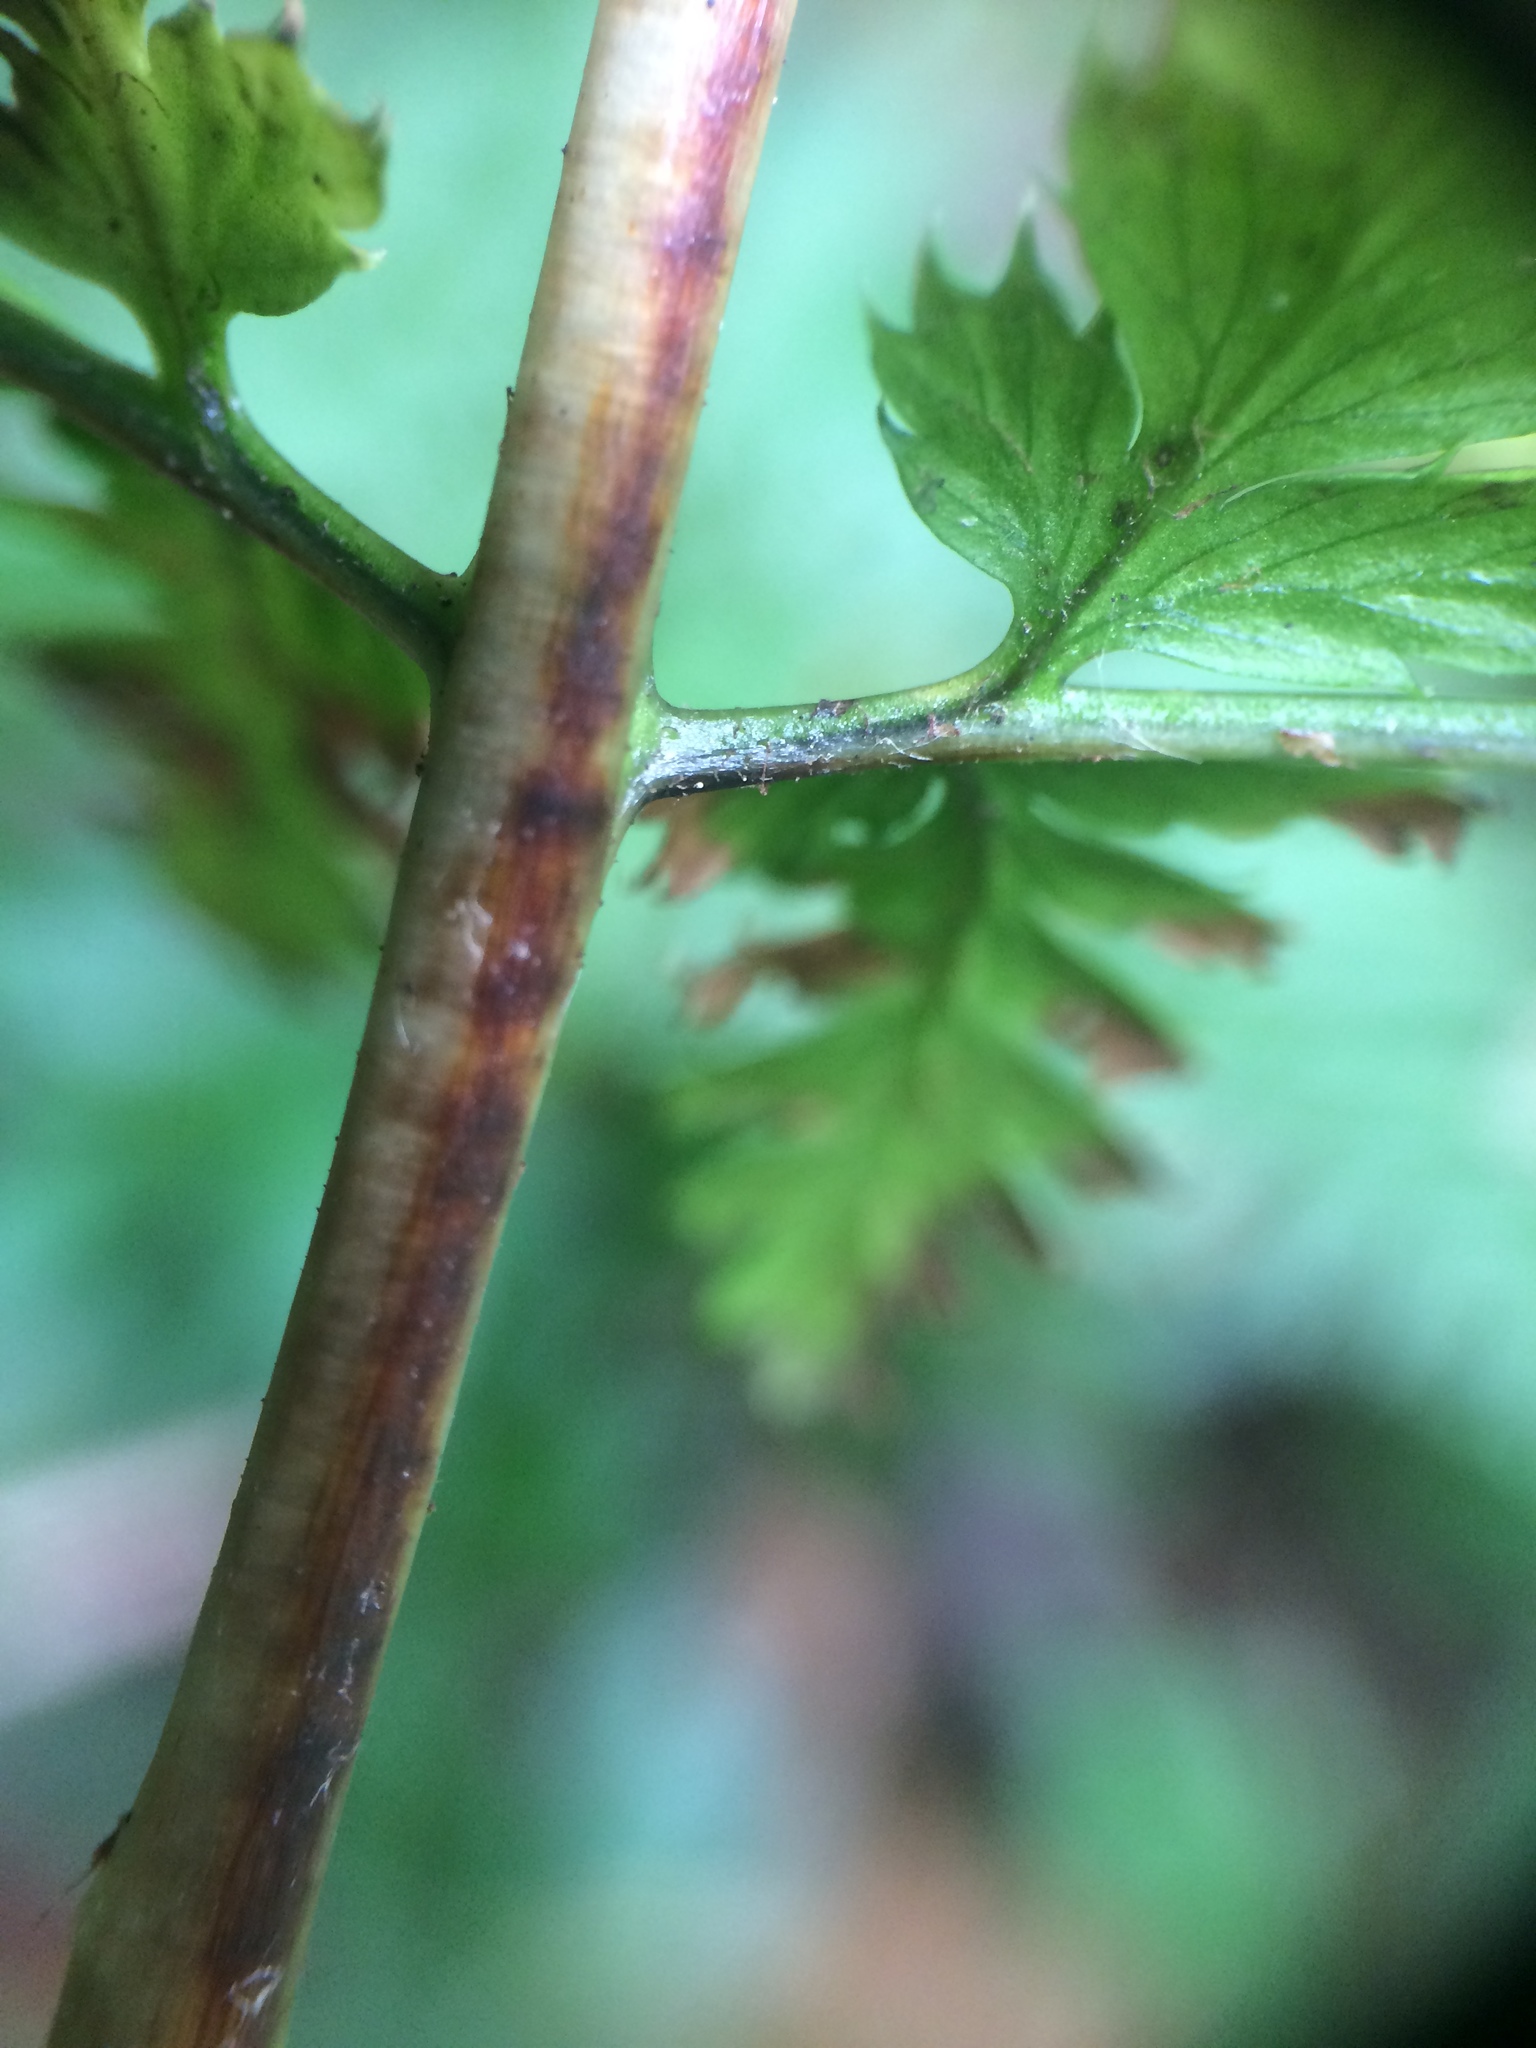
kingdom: Plantae
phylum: Tracheophyta
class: Polypodiopsida
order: Polypodiales
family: Dryopteridaceae
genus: Dryopteris
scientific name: Dryopteris carthusiana
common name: Narrow buckler-fern
